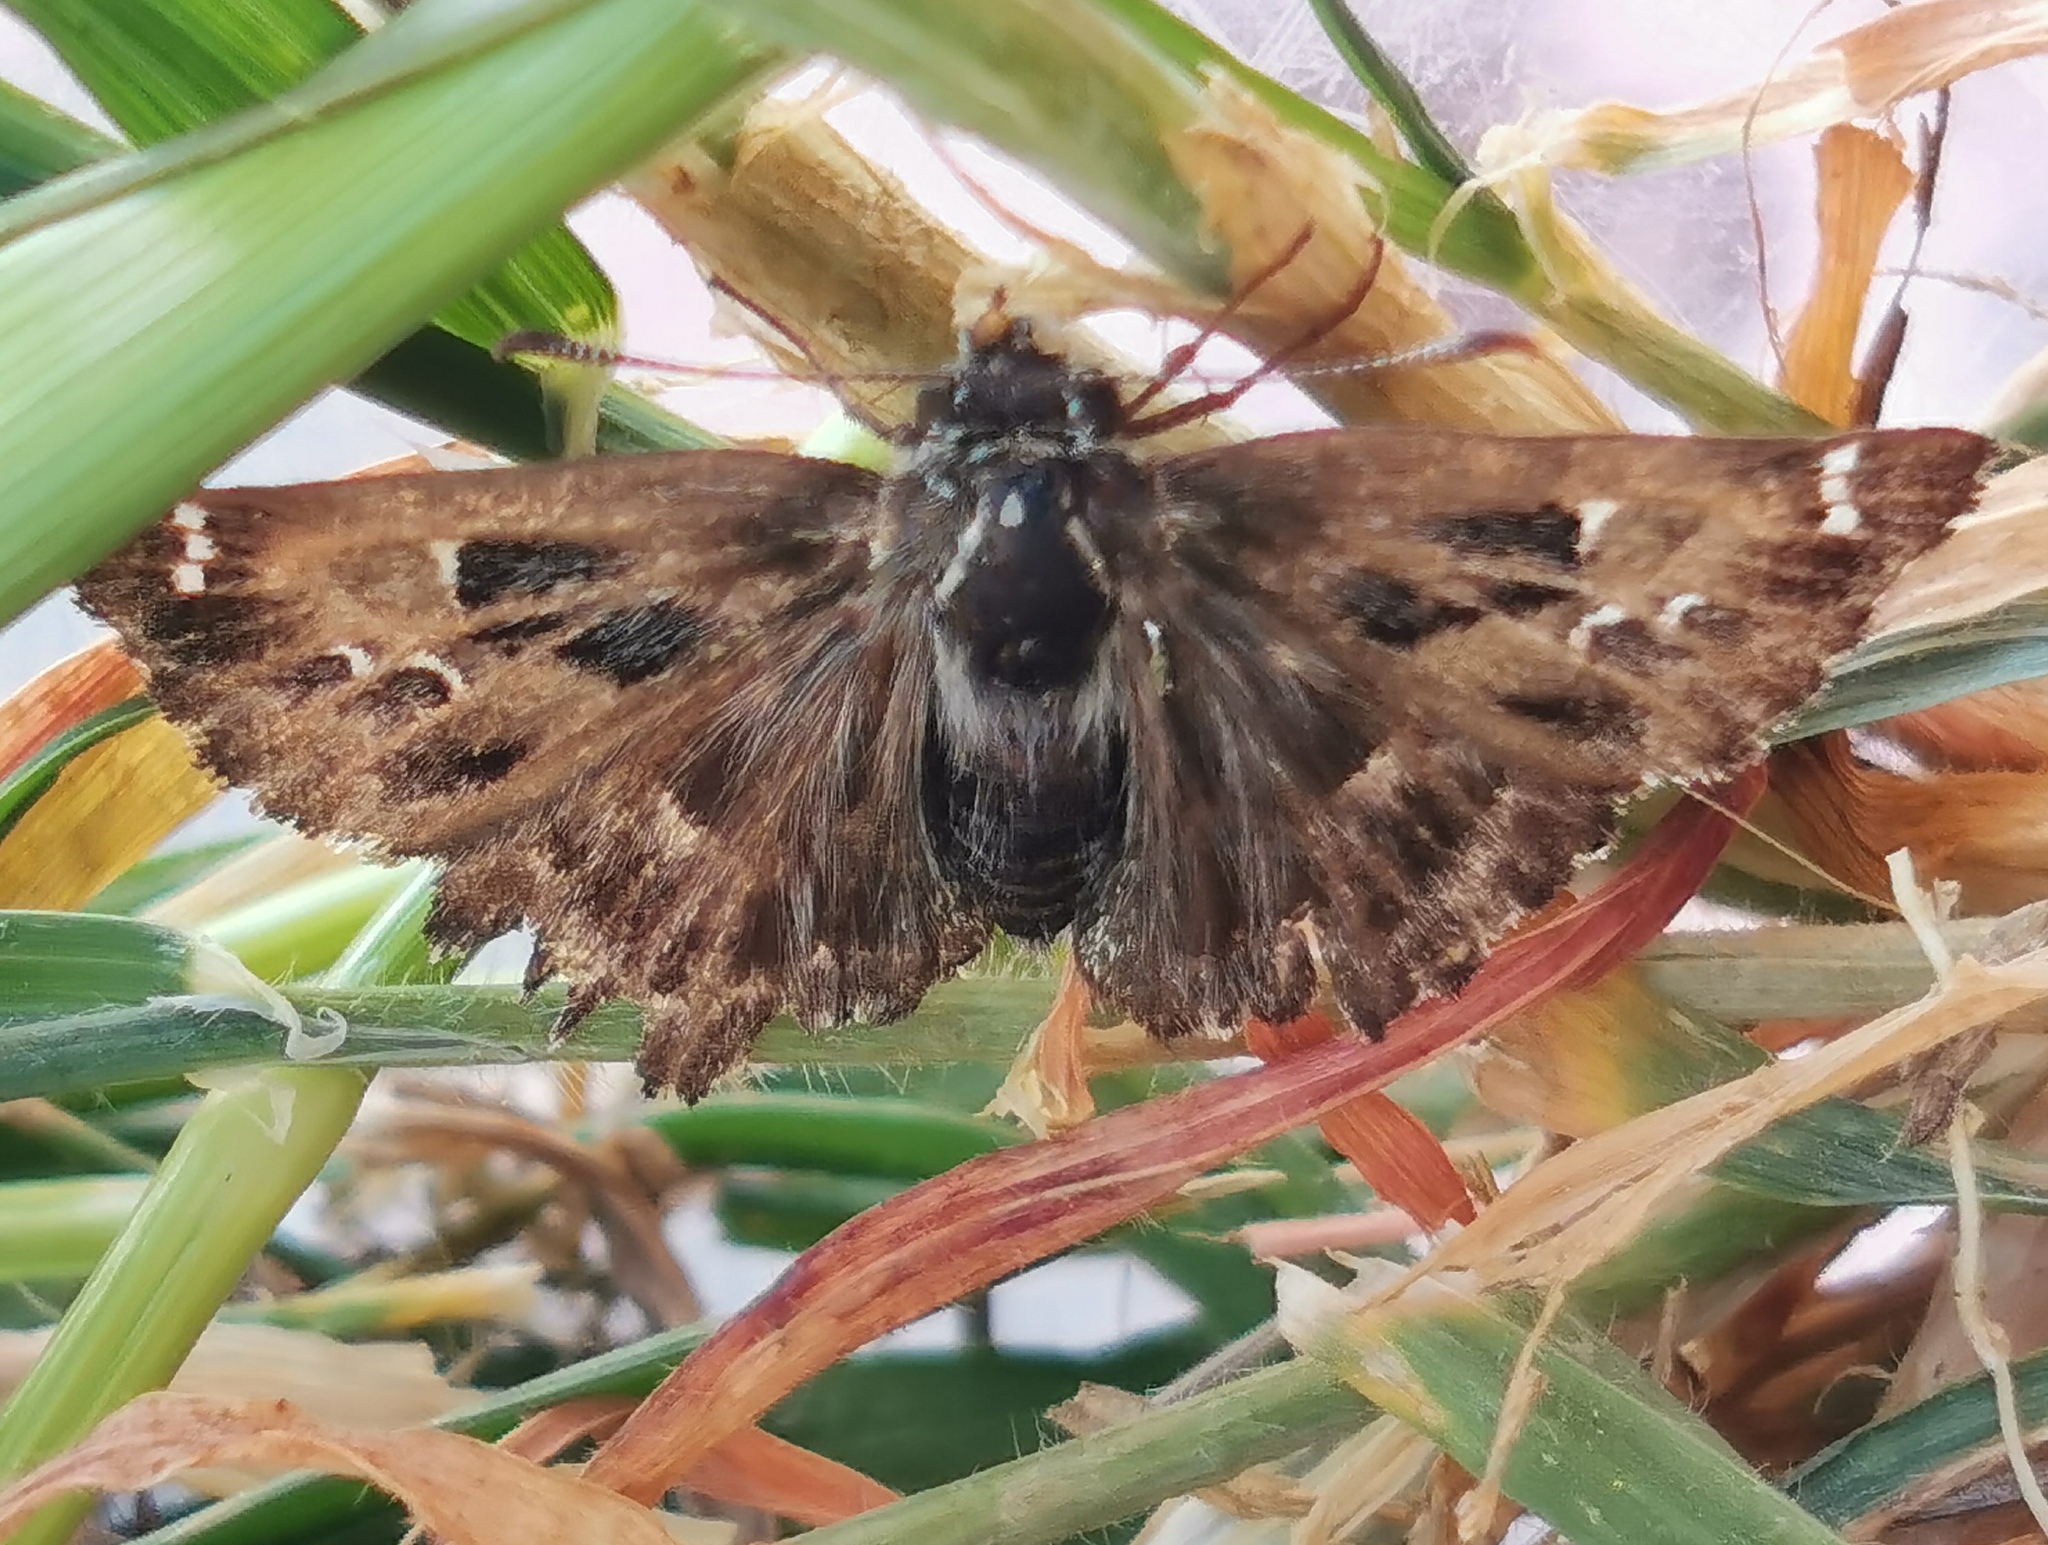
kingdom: Animalia
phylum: Arthropoda
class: Insecta
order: Lepidoptera
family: Hesperiidae
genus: Carcharodus
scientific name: Carcharodus alceae
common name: Mallow skipper
